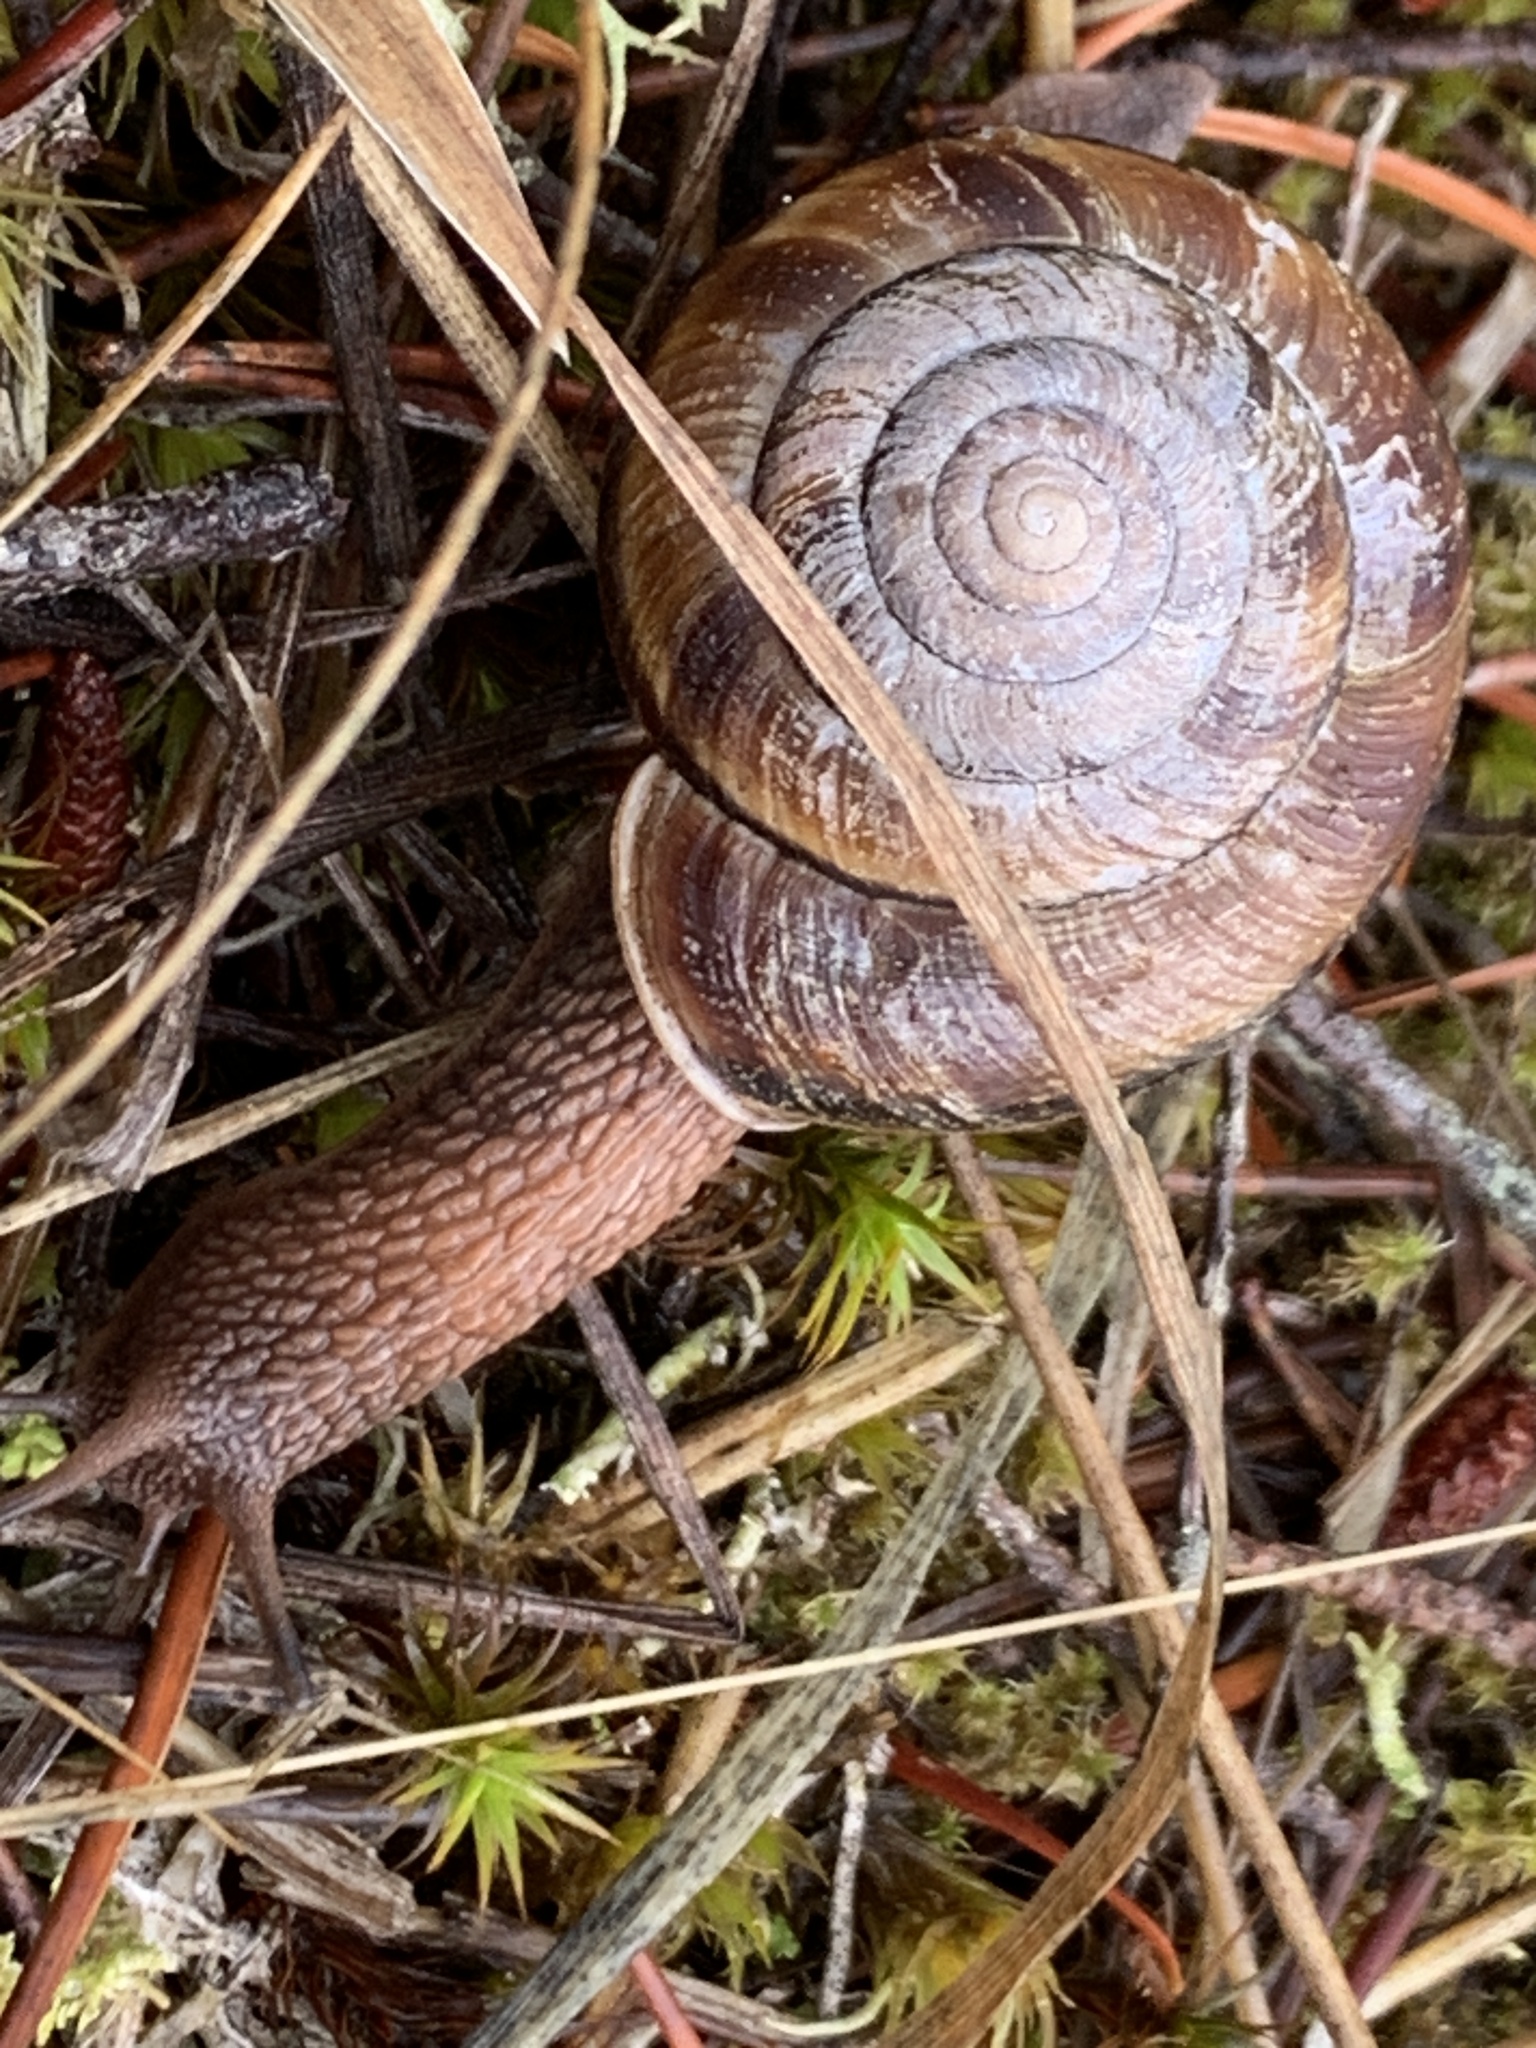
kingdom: Animalia
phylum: Mollusca
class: Gastropoda
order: Stylommatophora
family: Xanthonychidae
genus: Monadenia
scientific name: Monadenia fidelis
